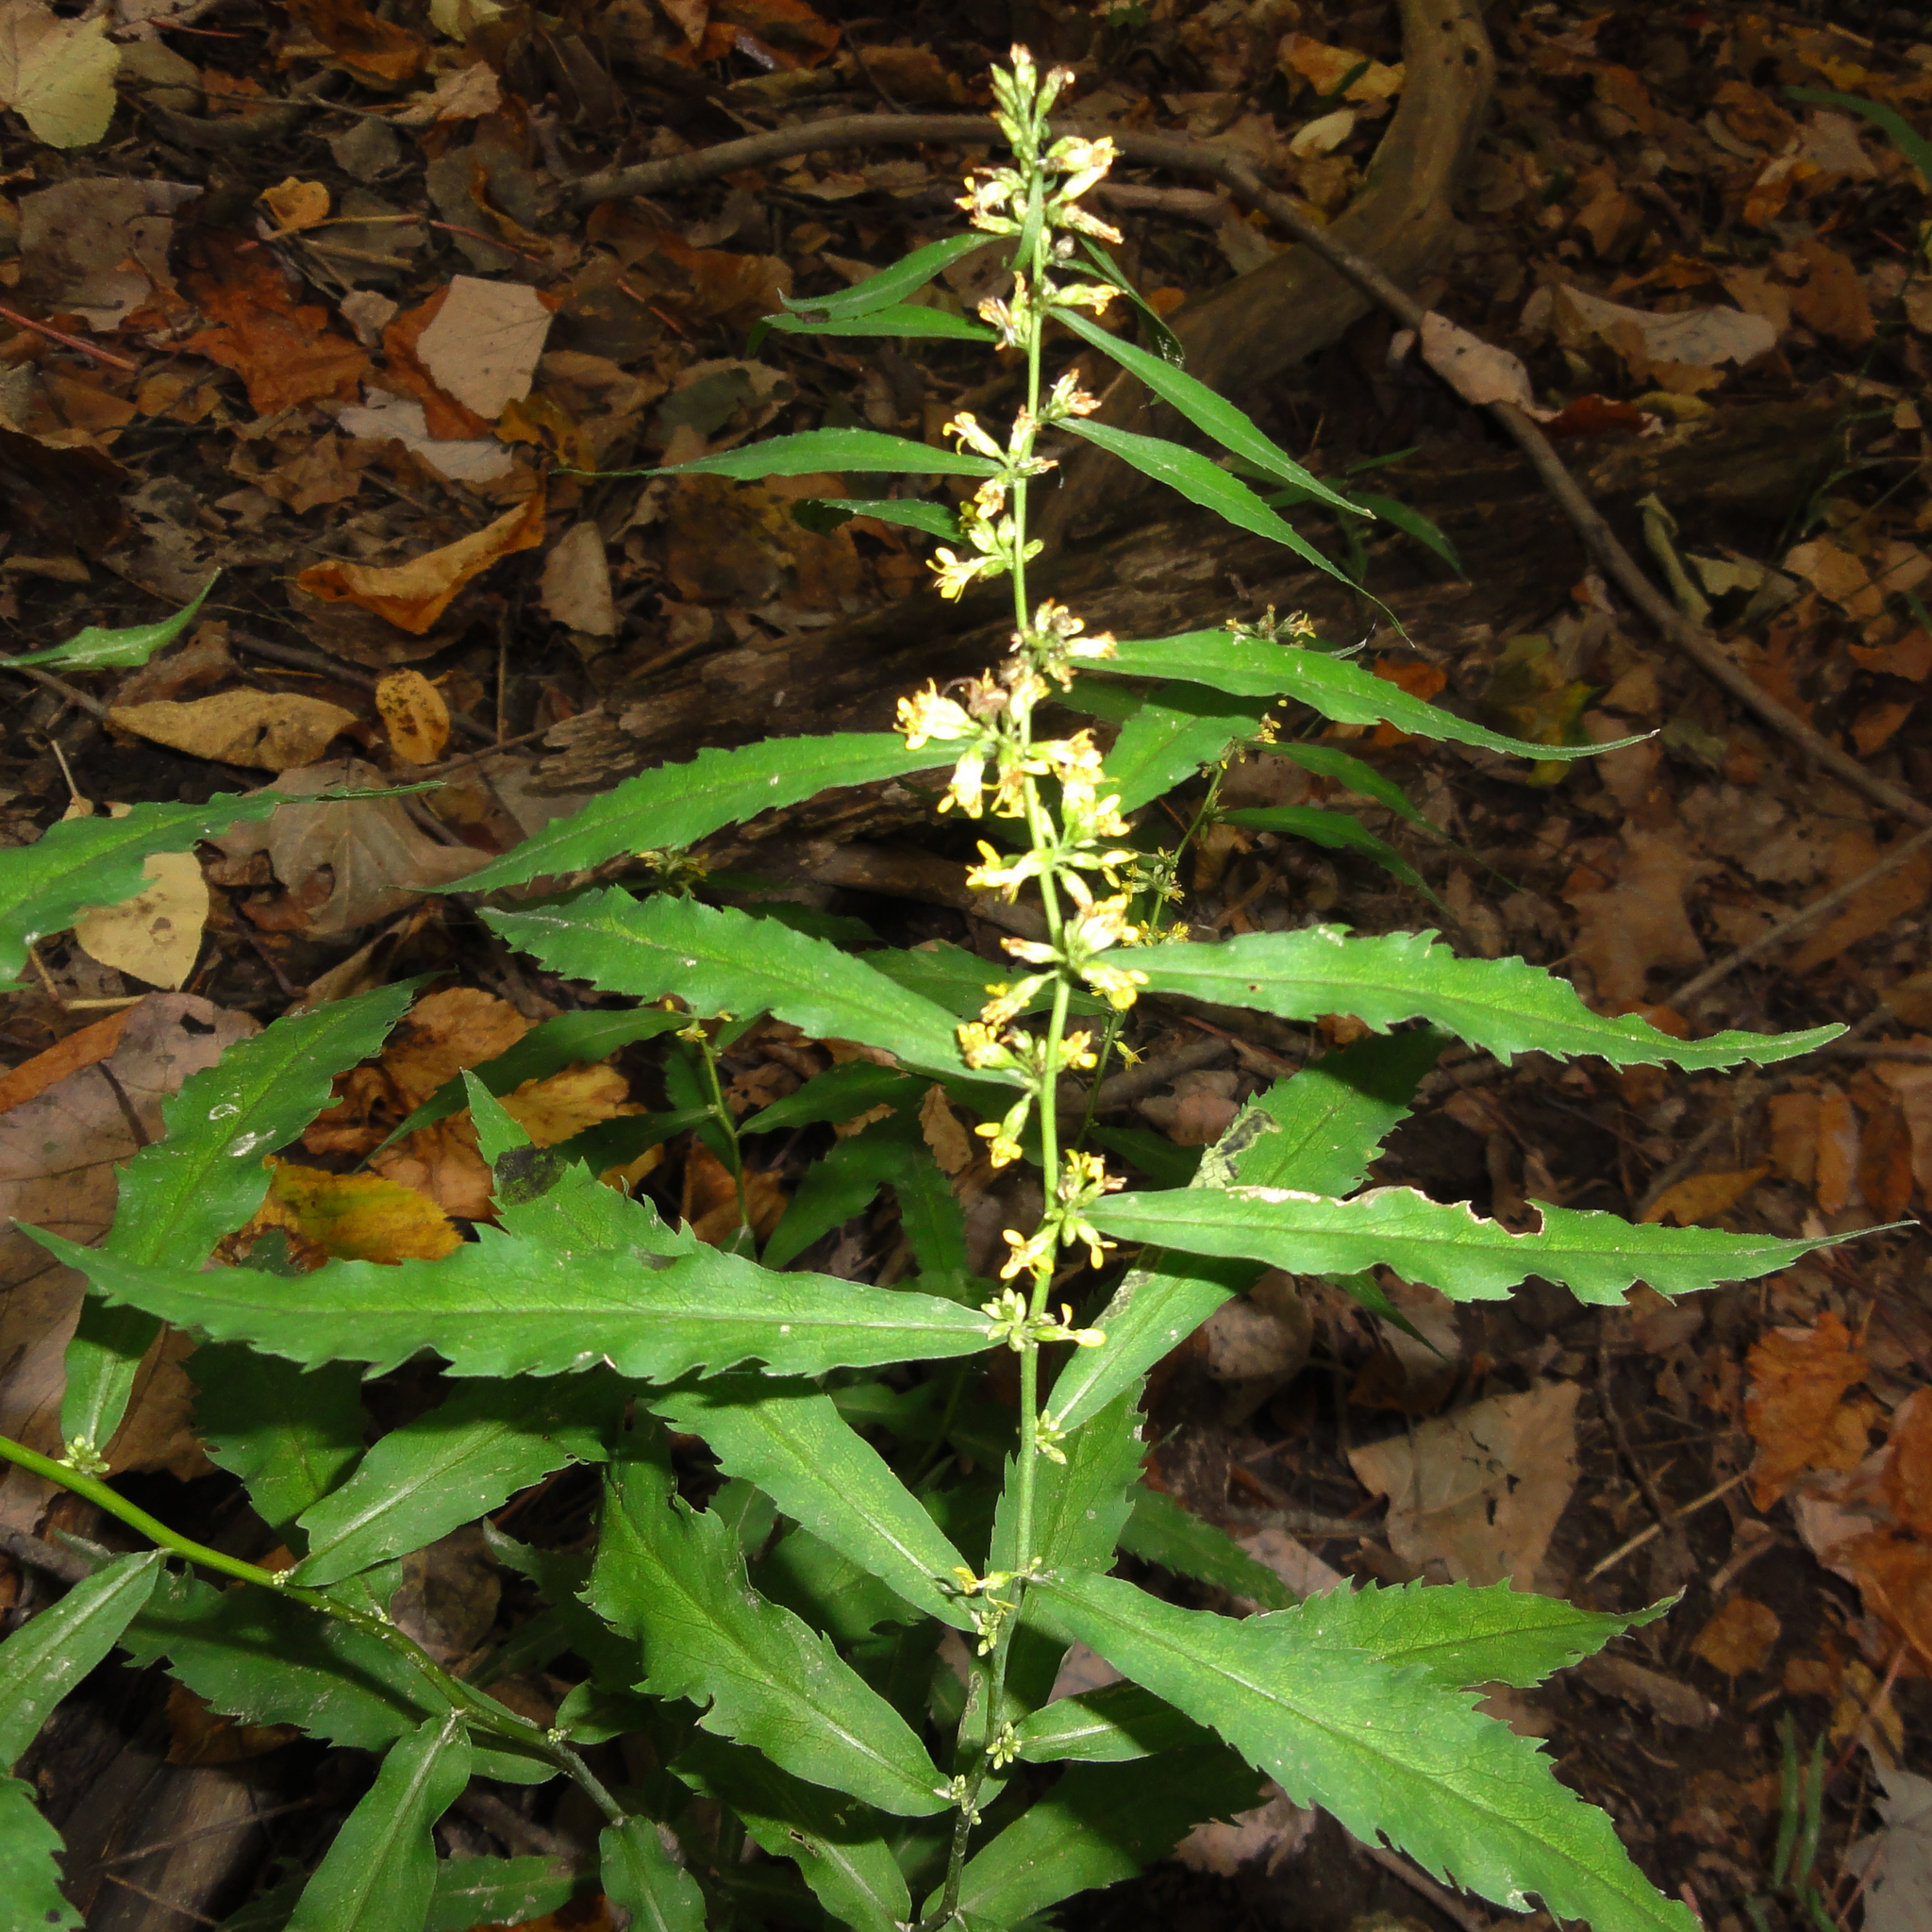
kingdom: Plantae
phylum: Tracheophyta
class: Magnoliopsida
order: Asterales
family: Asteraceae
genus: Solidago
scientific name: Solidago caesia
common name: Woodland goldenrod
